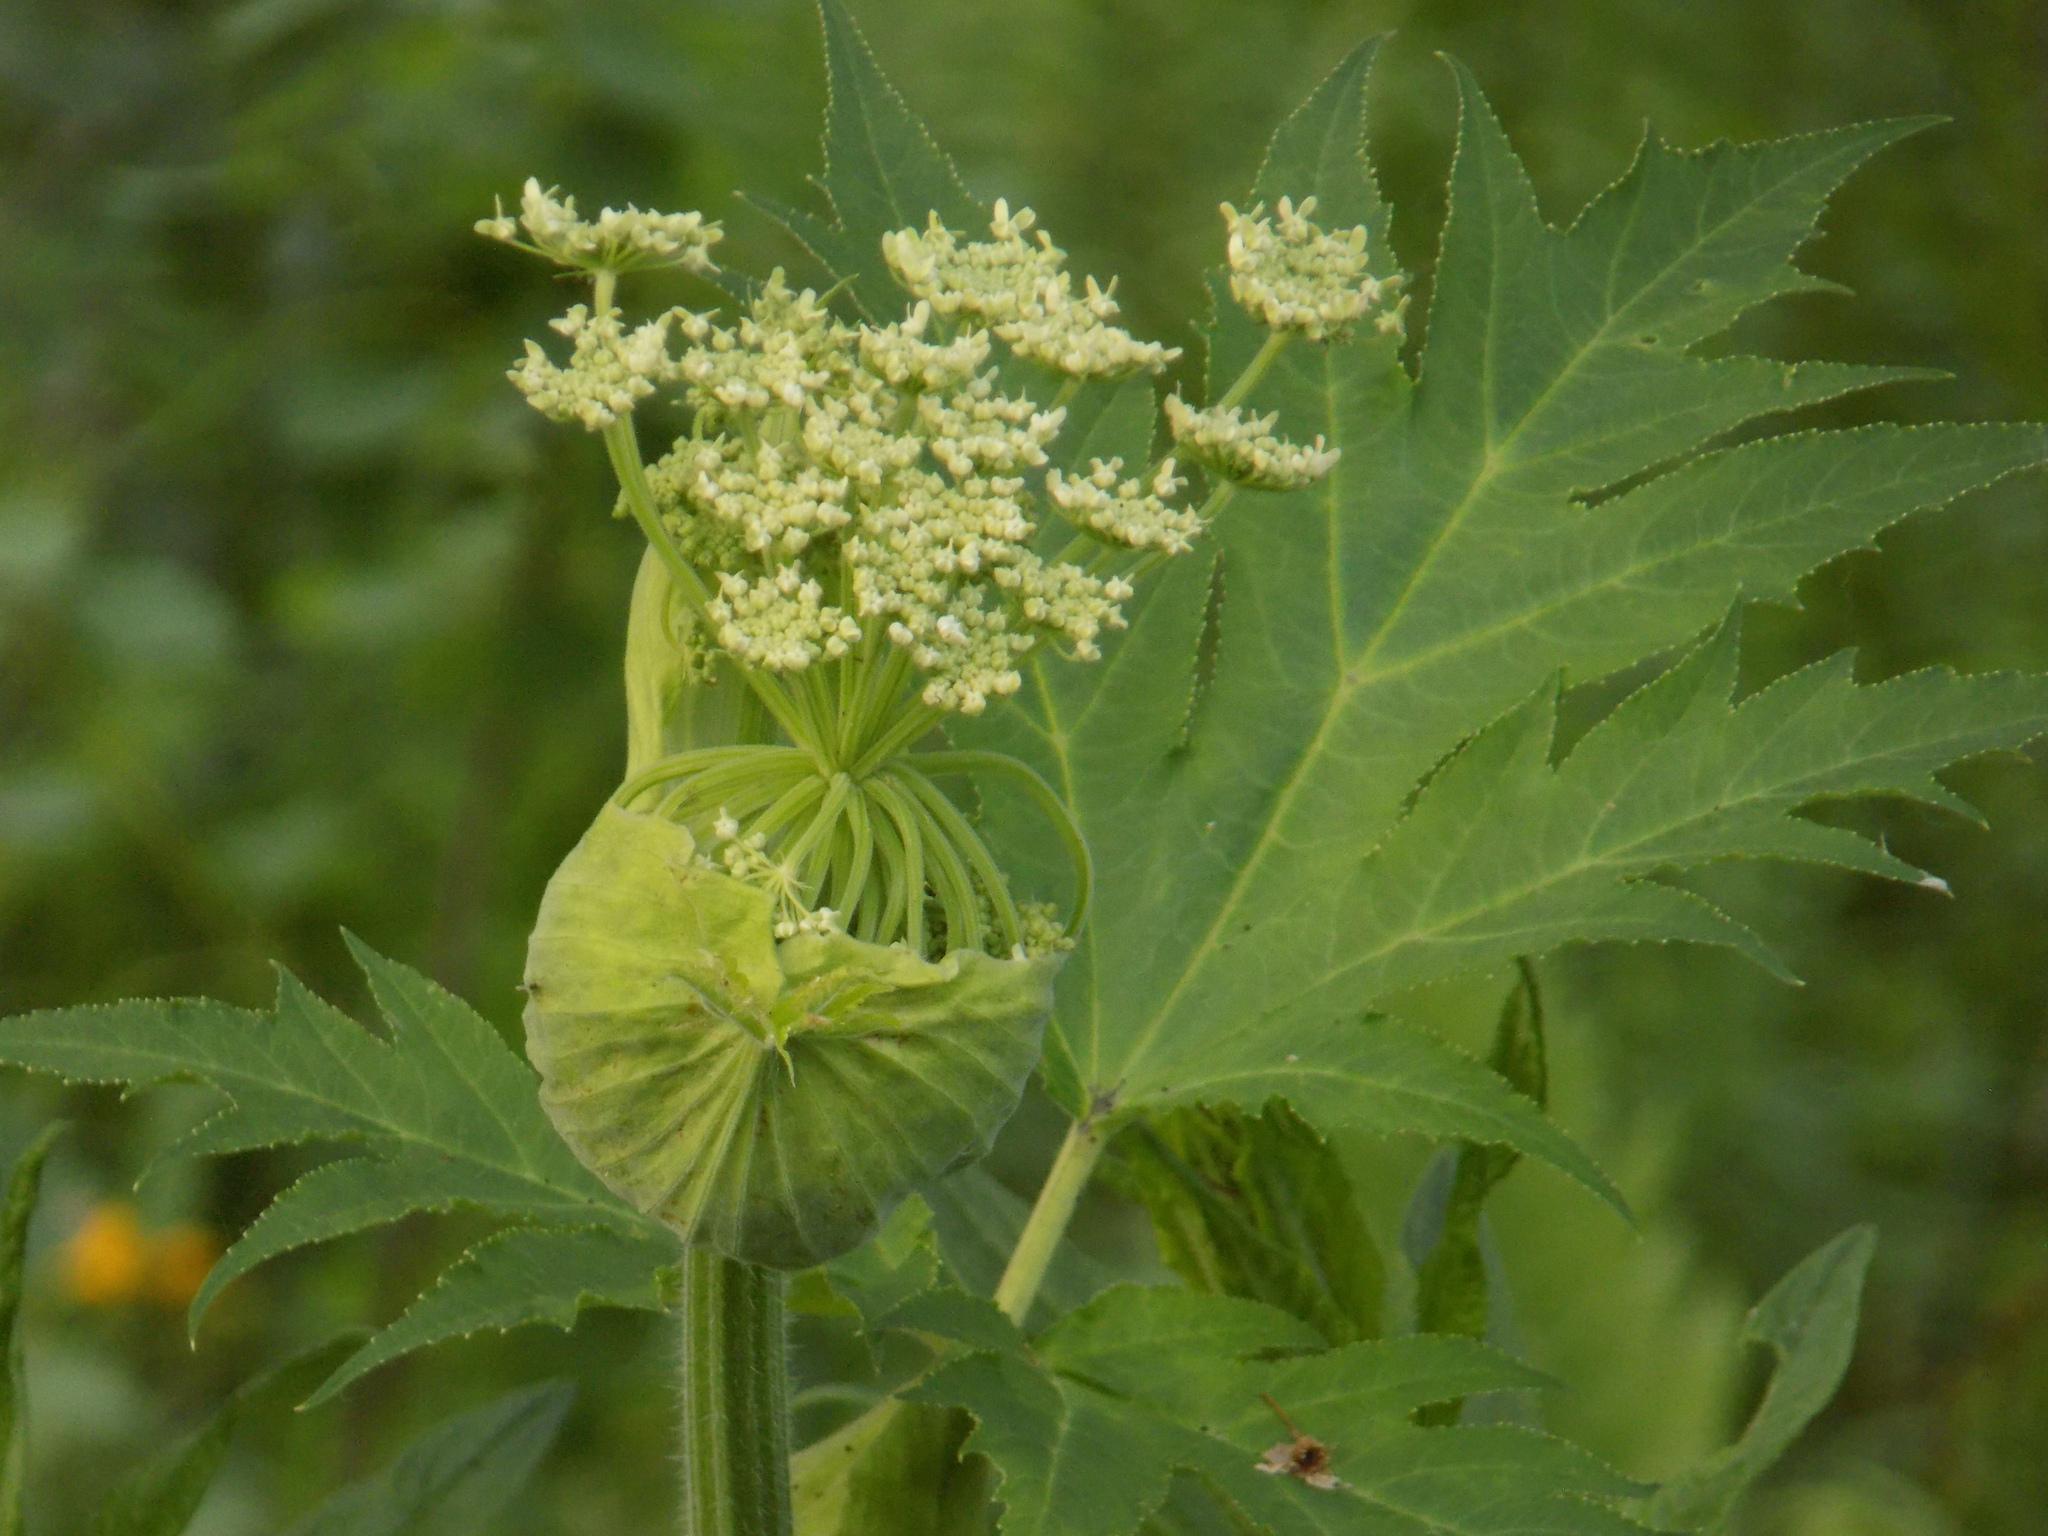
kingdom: Plantae
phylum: Tracheophyta
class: Magnoliopsida
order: Apiales
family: Apiaceae
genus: Heracleum
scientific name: Heracleum dissectum
